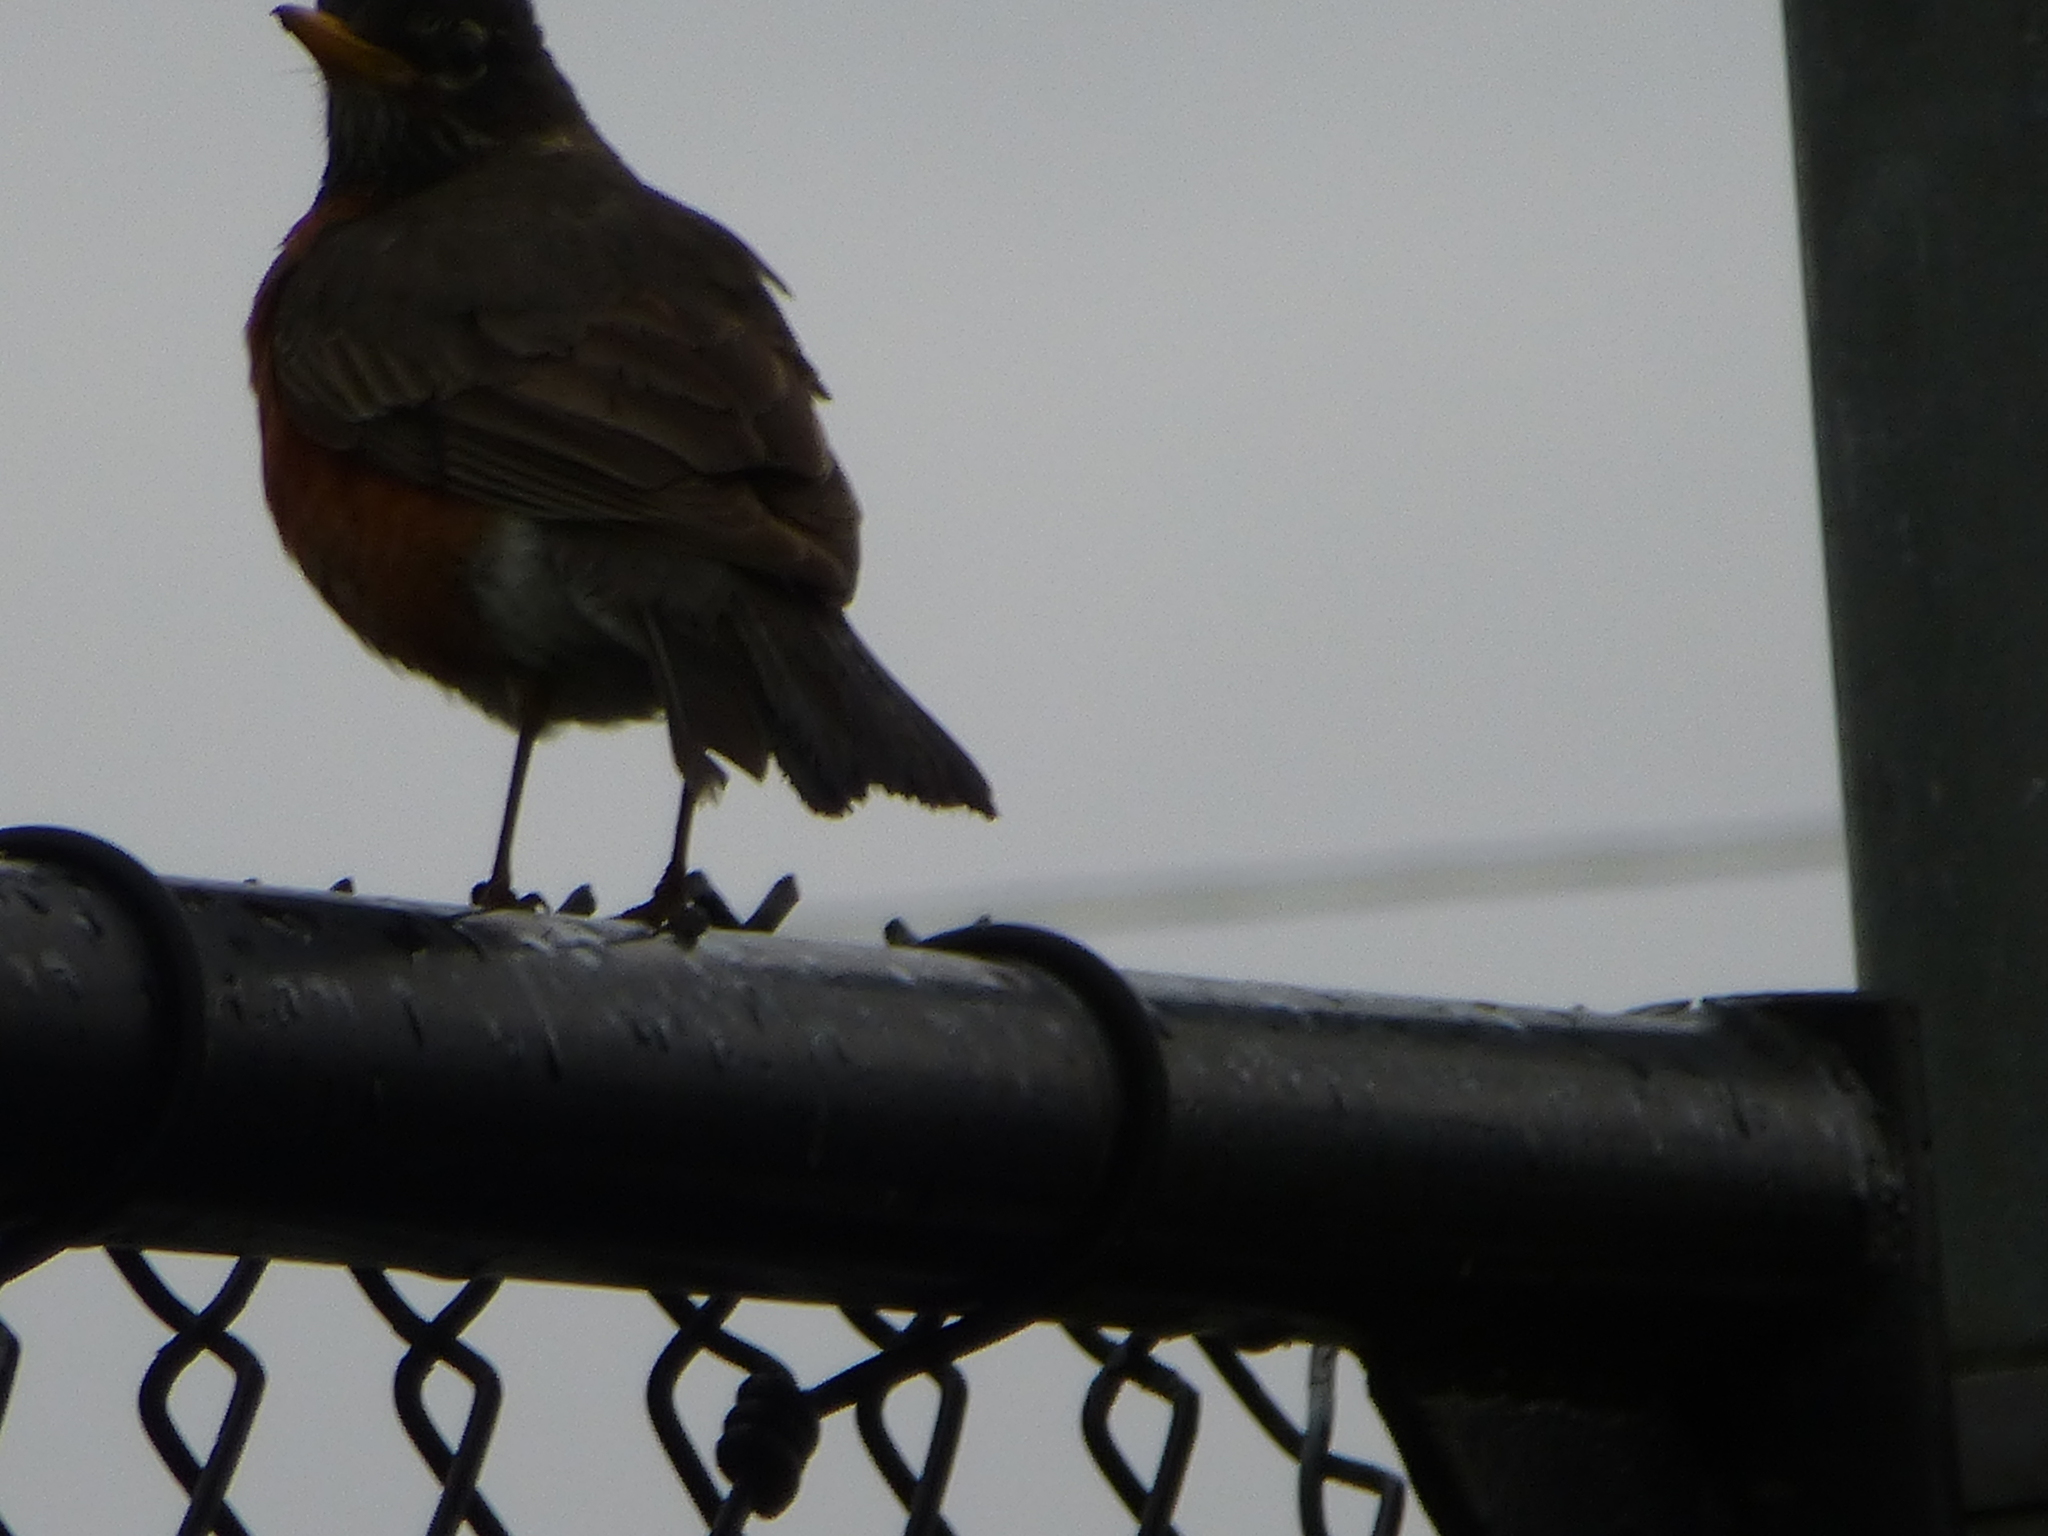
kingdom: Animalia
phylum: Chordata
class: Aves
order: Passeriformes
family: Turdidae
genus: Turdus
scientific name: Turdus migratorius
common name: American robin
